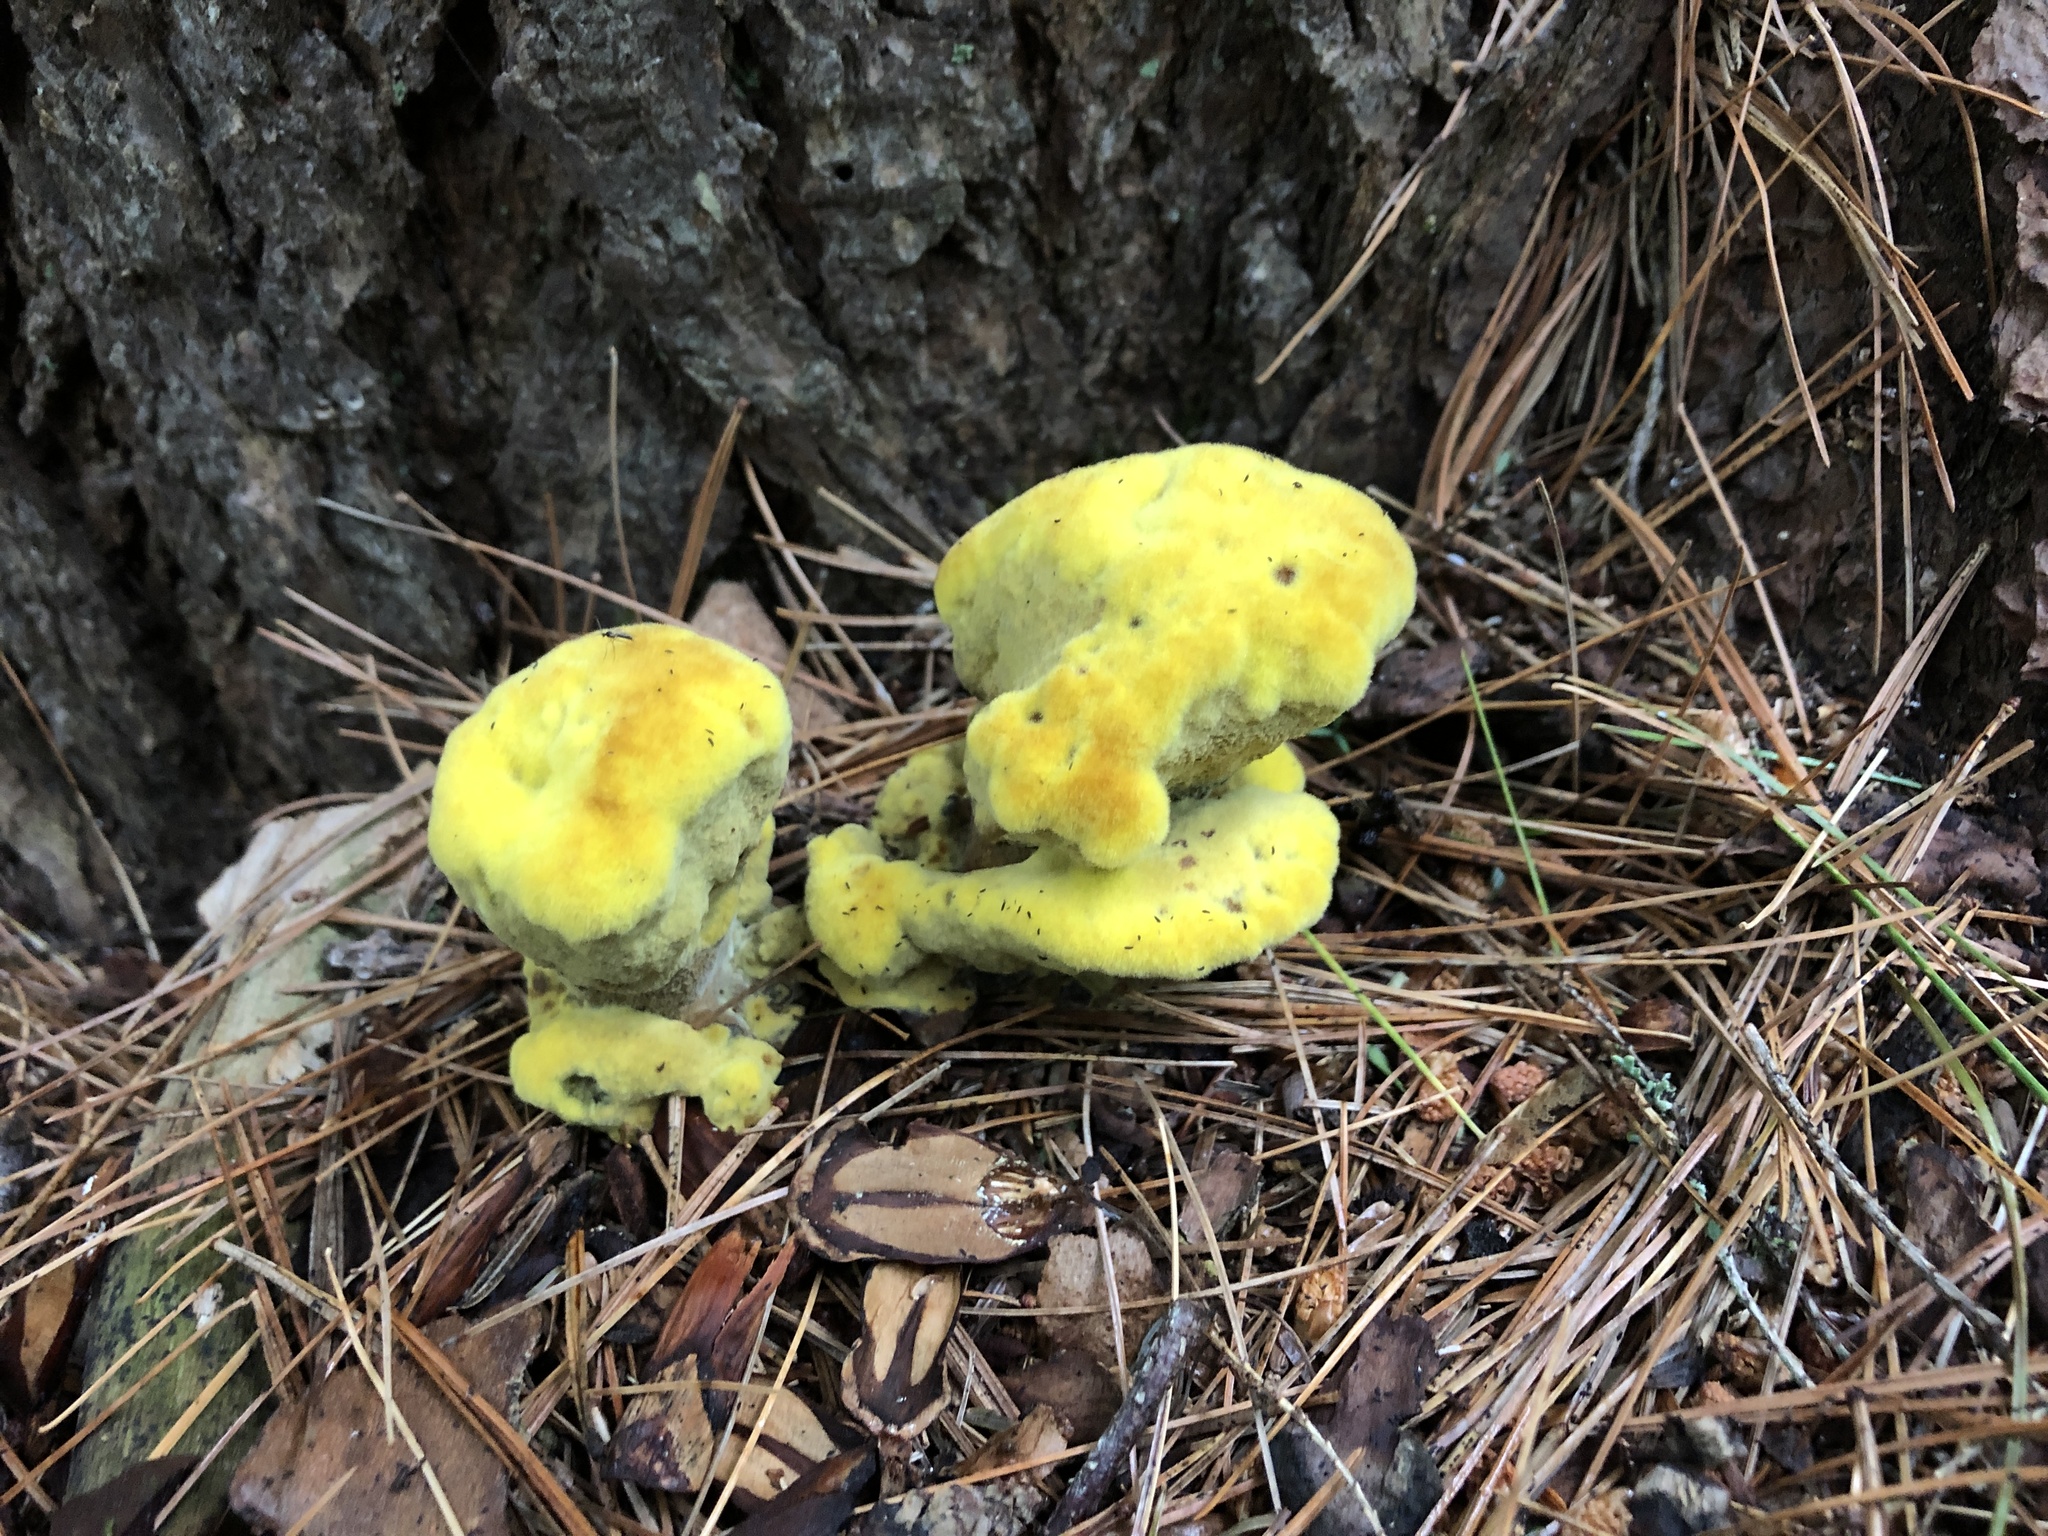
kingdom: Fungi
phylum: Basidiomycota
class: Agaricomycetes
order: Polyporales
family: Laetiporaceae
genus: Phaeolus
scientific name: Phaeolus schweinitzii
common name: Dyer's mazegill
